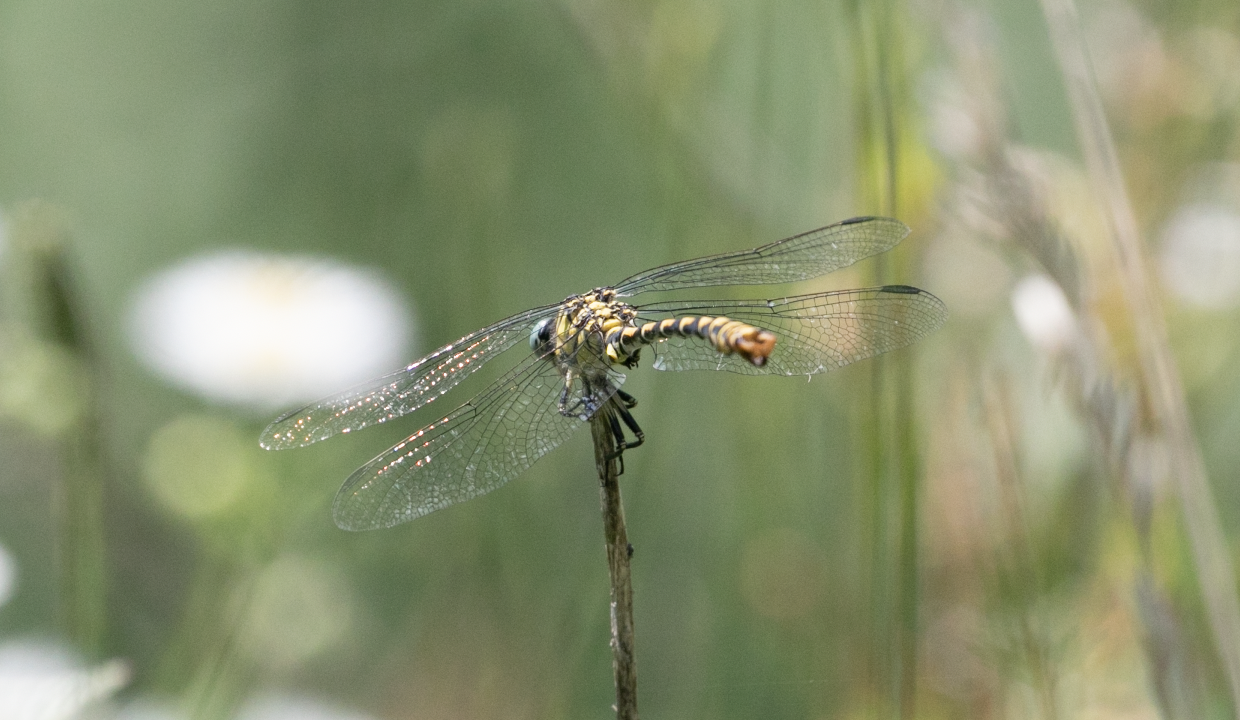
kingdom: Animalia
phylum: Arthropoda
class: Insecta
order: Odonata
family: Gomphidae
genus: Onychogomphus
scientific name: Onychogomphus forcipatus
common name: Small pincertail
